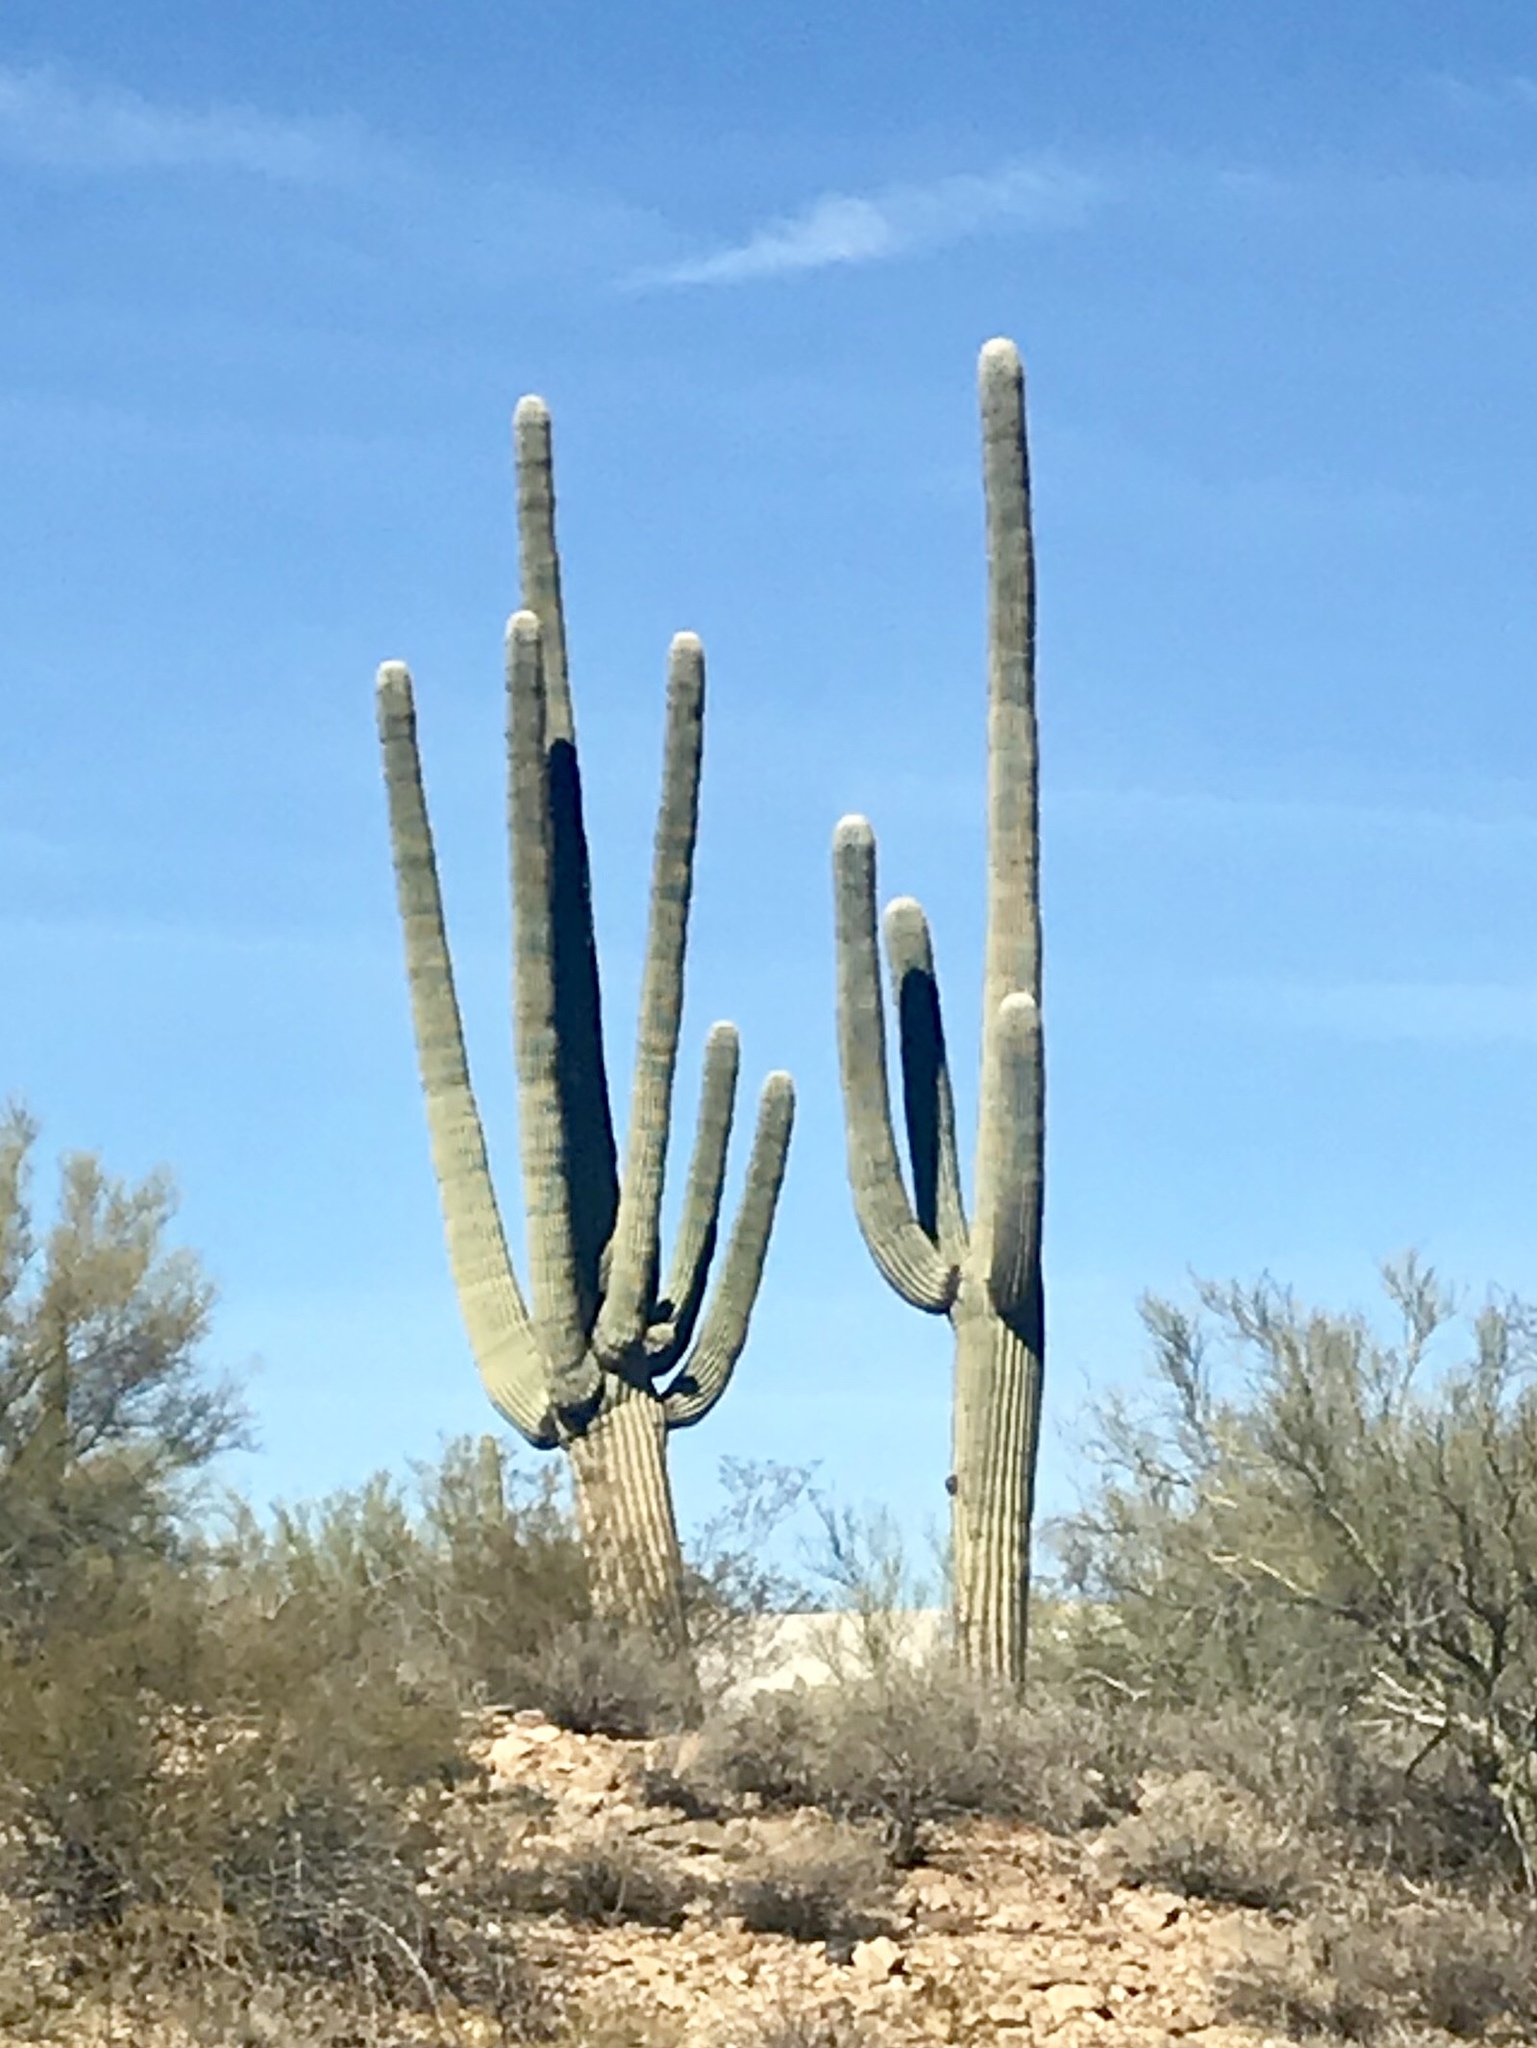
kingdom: Plantae
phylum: Tracheophyta
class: Magnoliopsida
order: Caryophyllales
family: Cactaceae
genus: Carnegiea
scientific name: Carnegiea gigantea
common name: Saguaro
